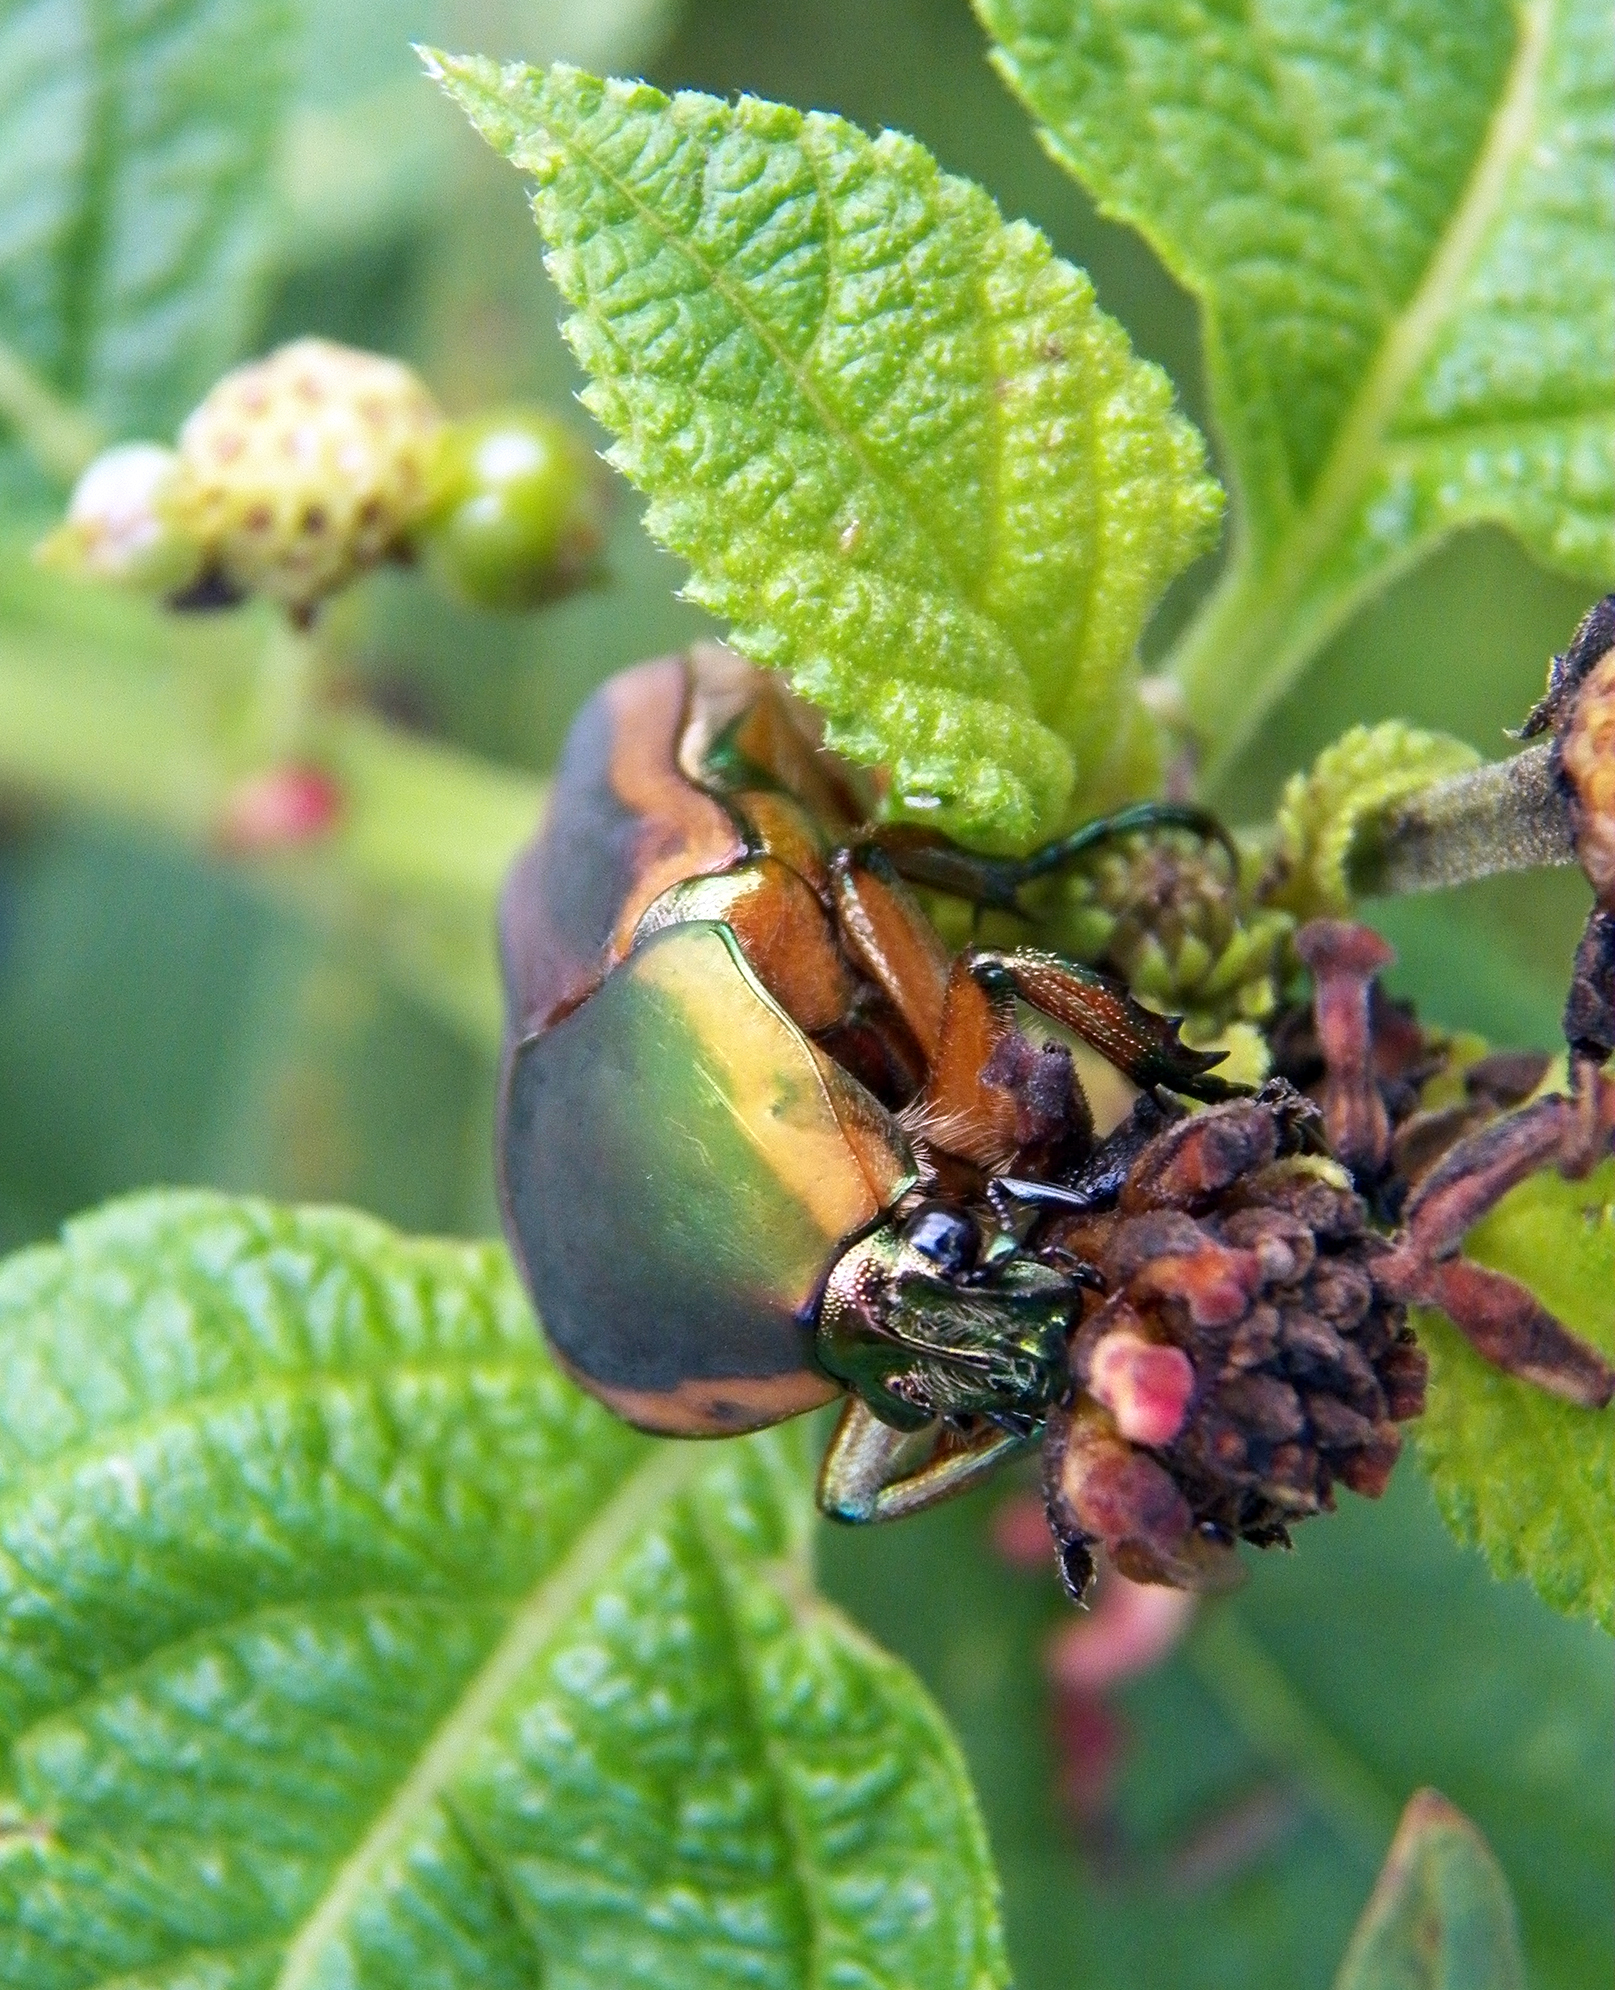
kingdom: Animalia
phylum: Arthropoda
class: Insecta
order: Coleoptera
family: Scarabaeidae
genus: Cotinis
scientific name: Cotinis nitida
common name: Common green june beetle
